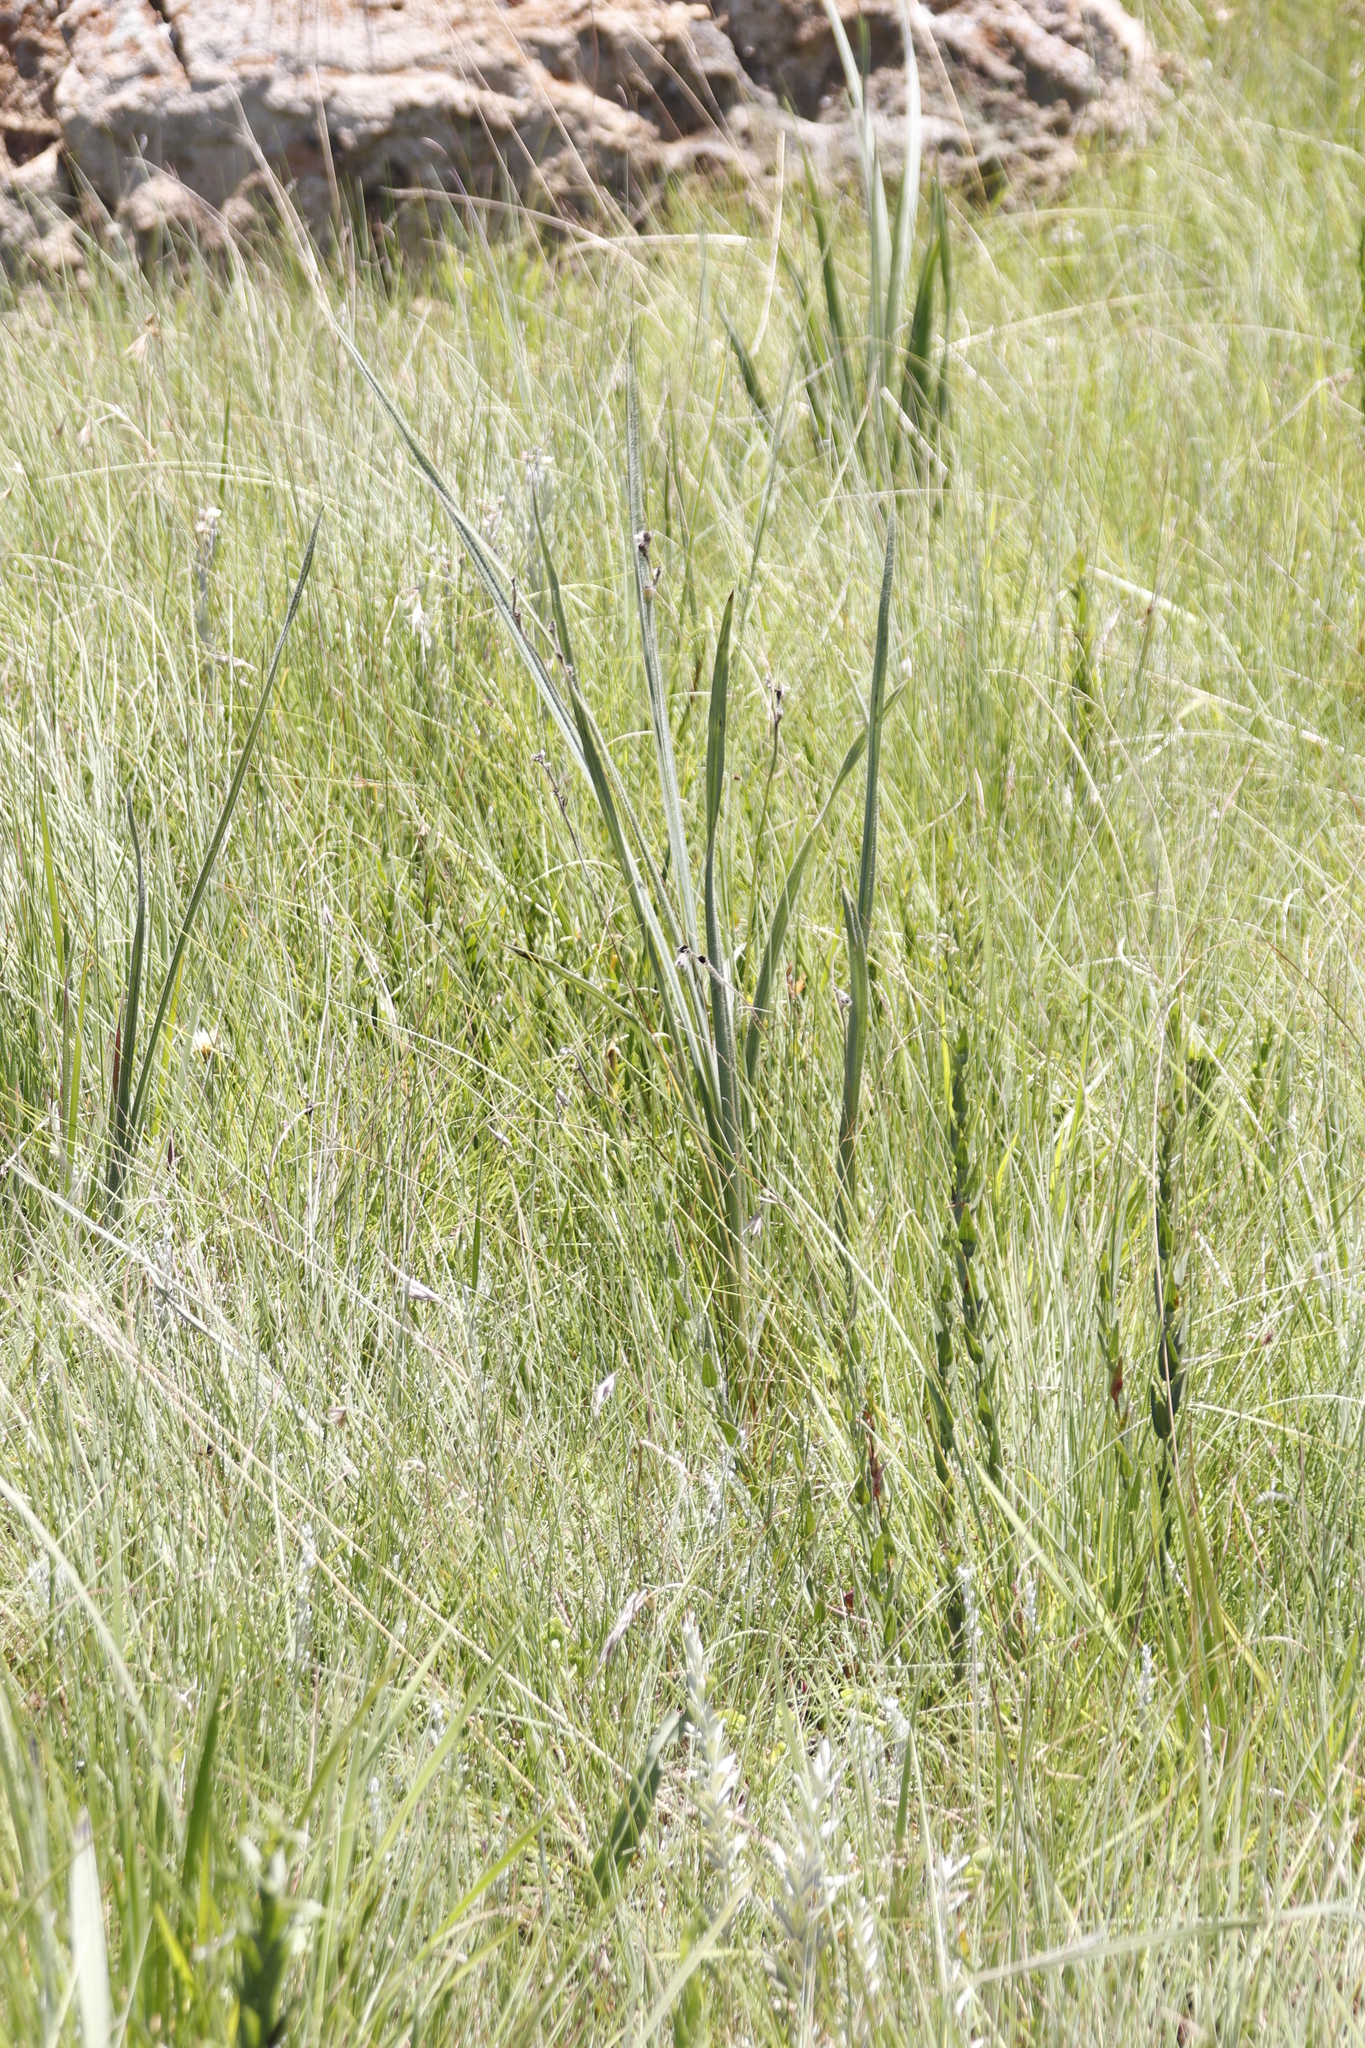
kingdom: Plantae
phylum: Tracheophyta
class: Liliopsida
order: Asparagales
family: Hypoxidaceae
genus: Hypoxis
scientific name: Hypoxis rigidula
